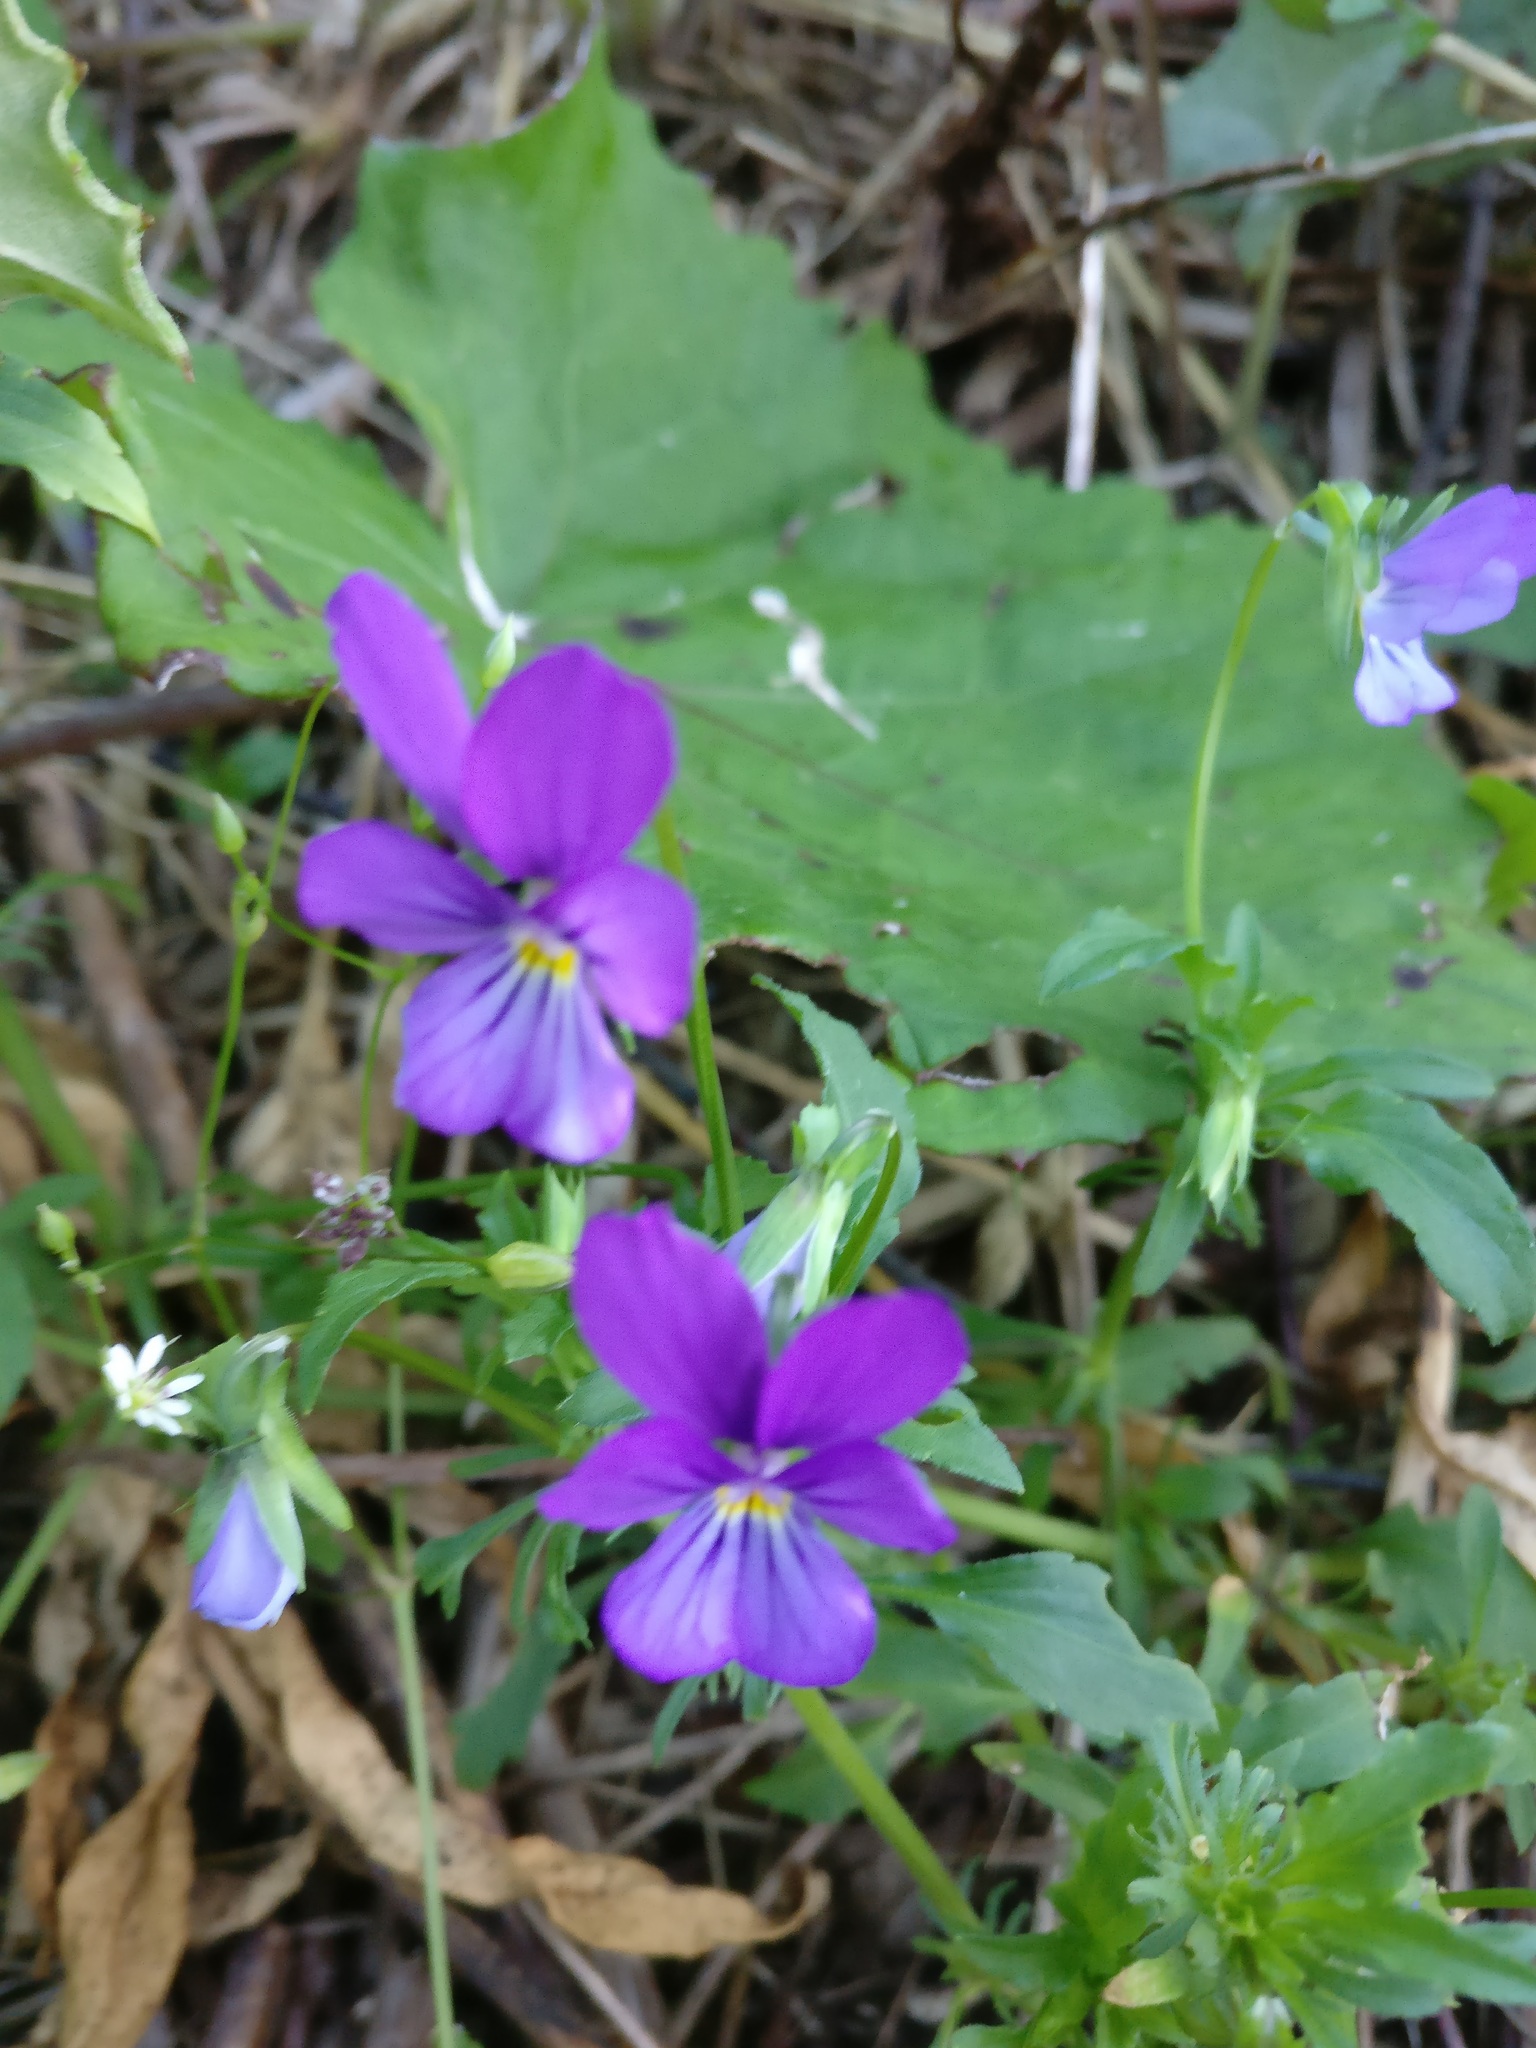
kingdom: Plantae
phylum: Tracheophyta
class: Magnoliopsida
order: Malpighiales
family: Violaceae
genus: Viola
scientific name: Viola tricolor
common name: Pansy
